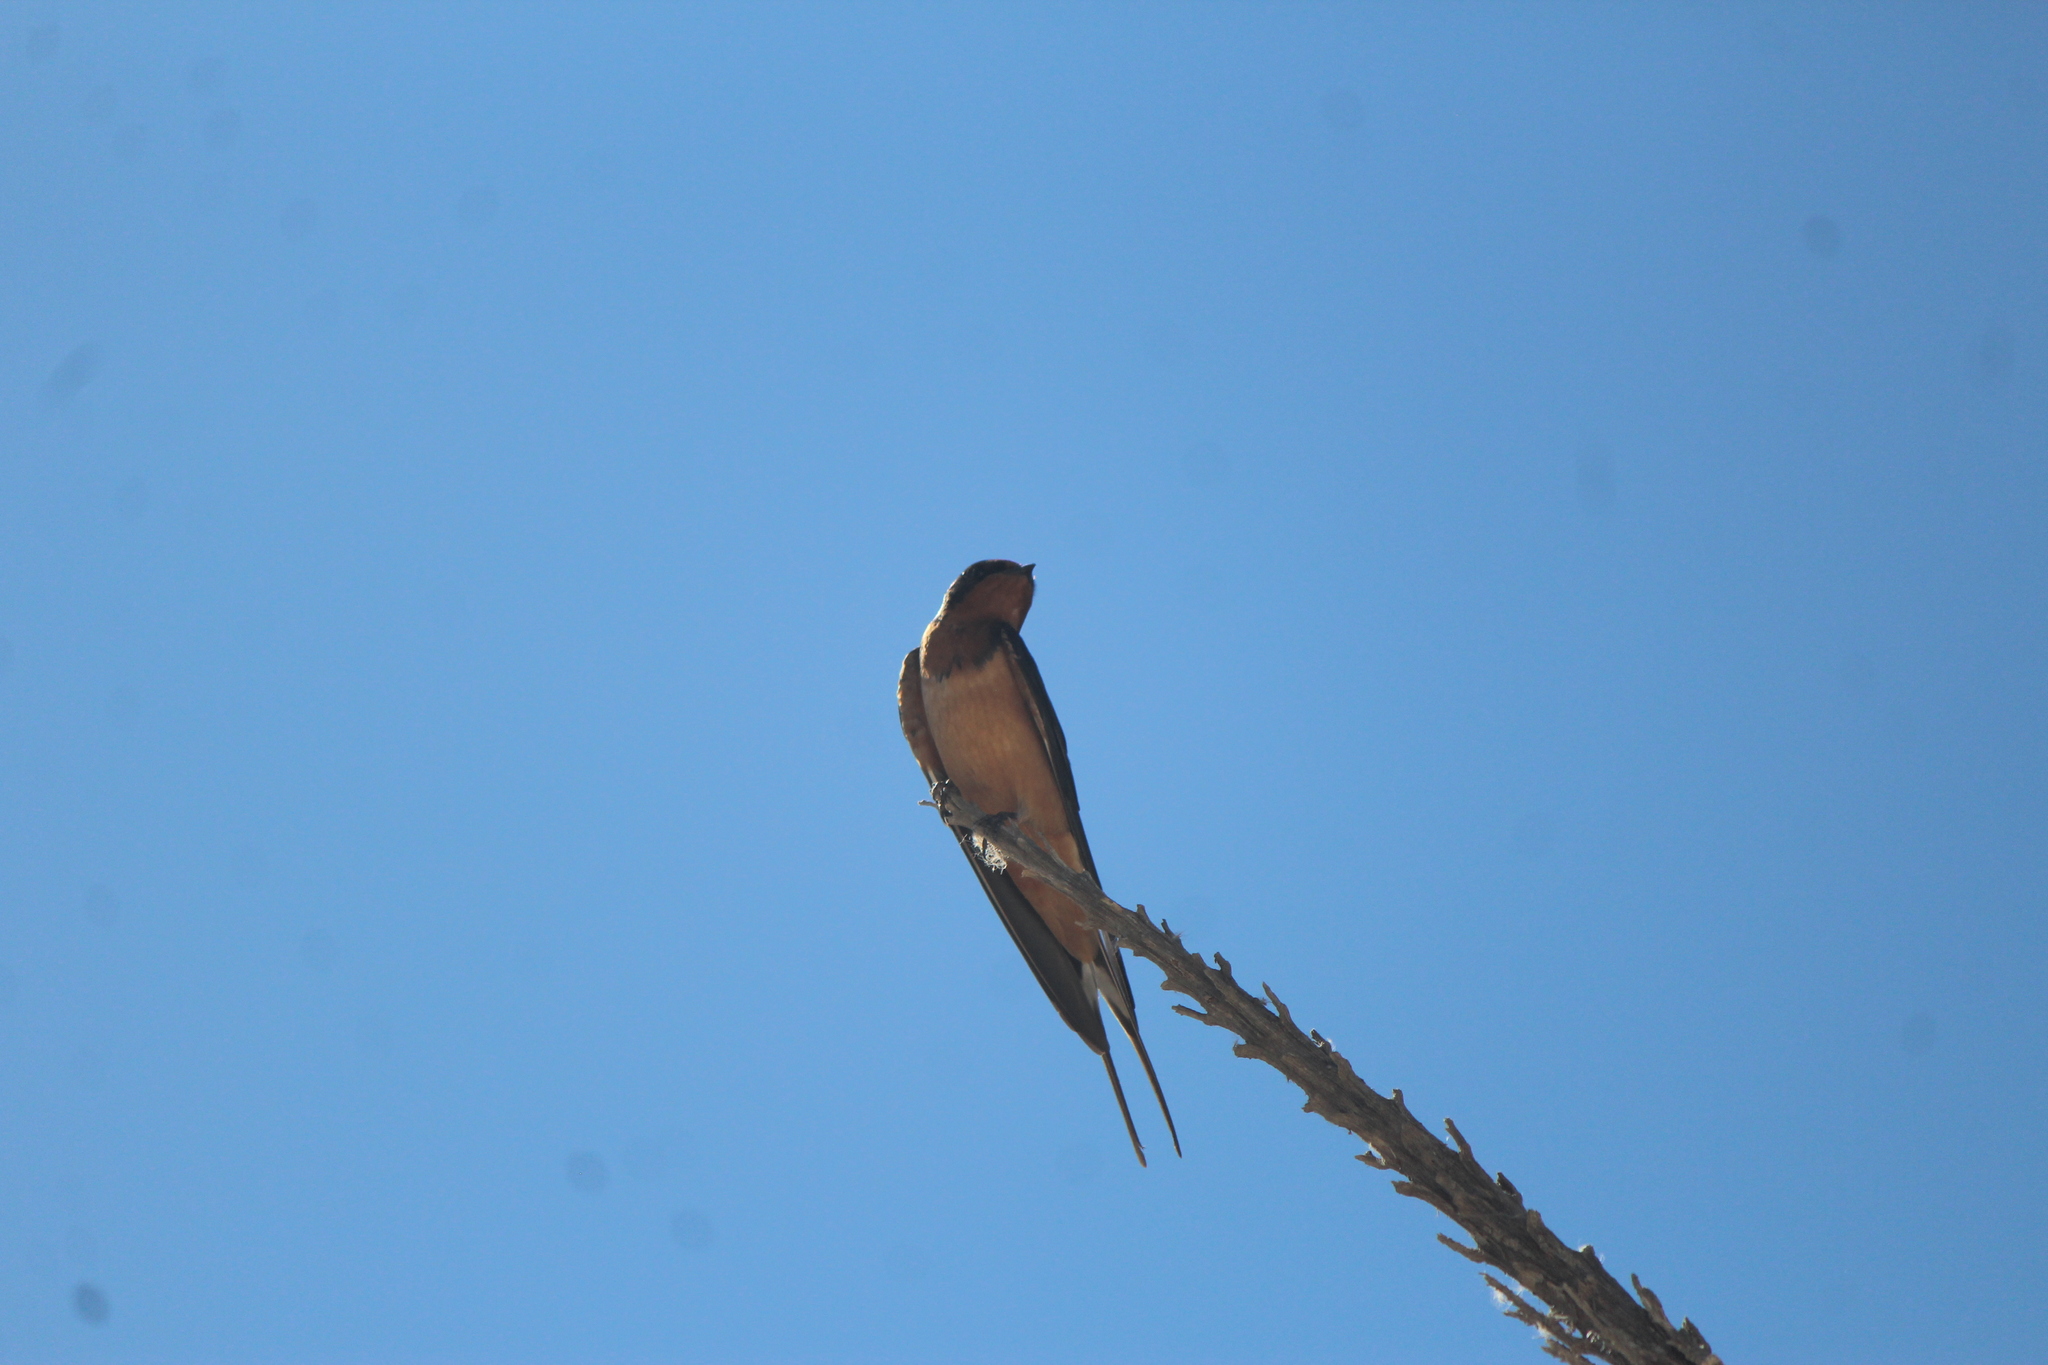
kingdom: Animalia
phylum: Chordata
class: Aves
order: Passeriformes
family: Hirundinidae
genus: Hirundo
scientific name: Hirundo rustica
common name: Barn swallow
